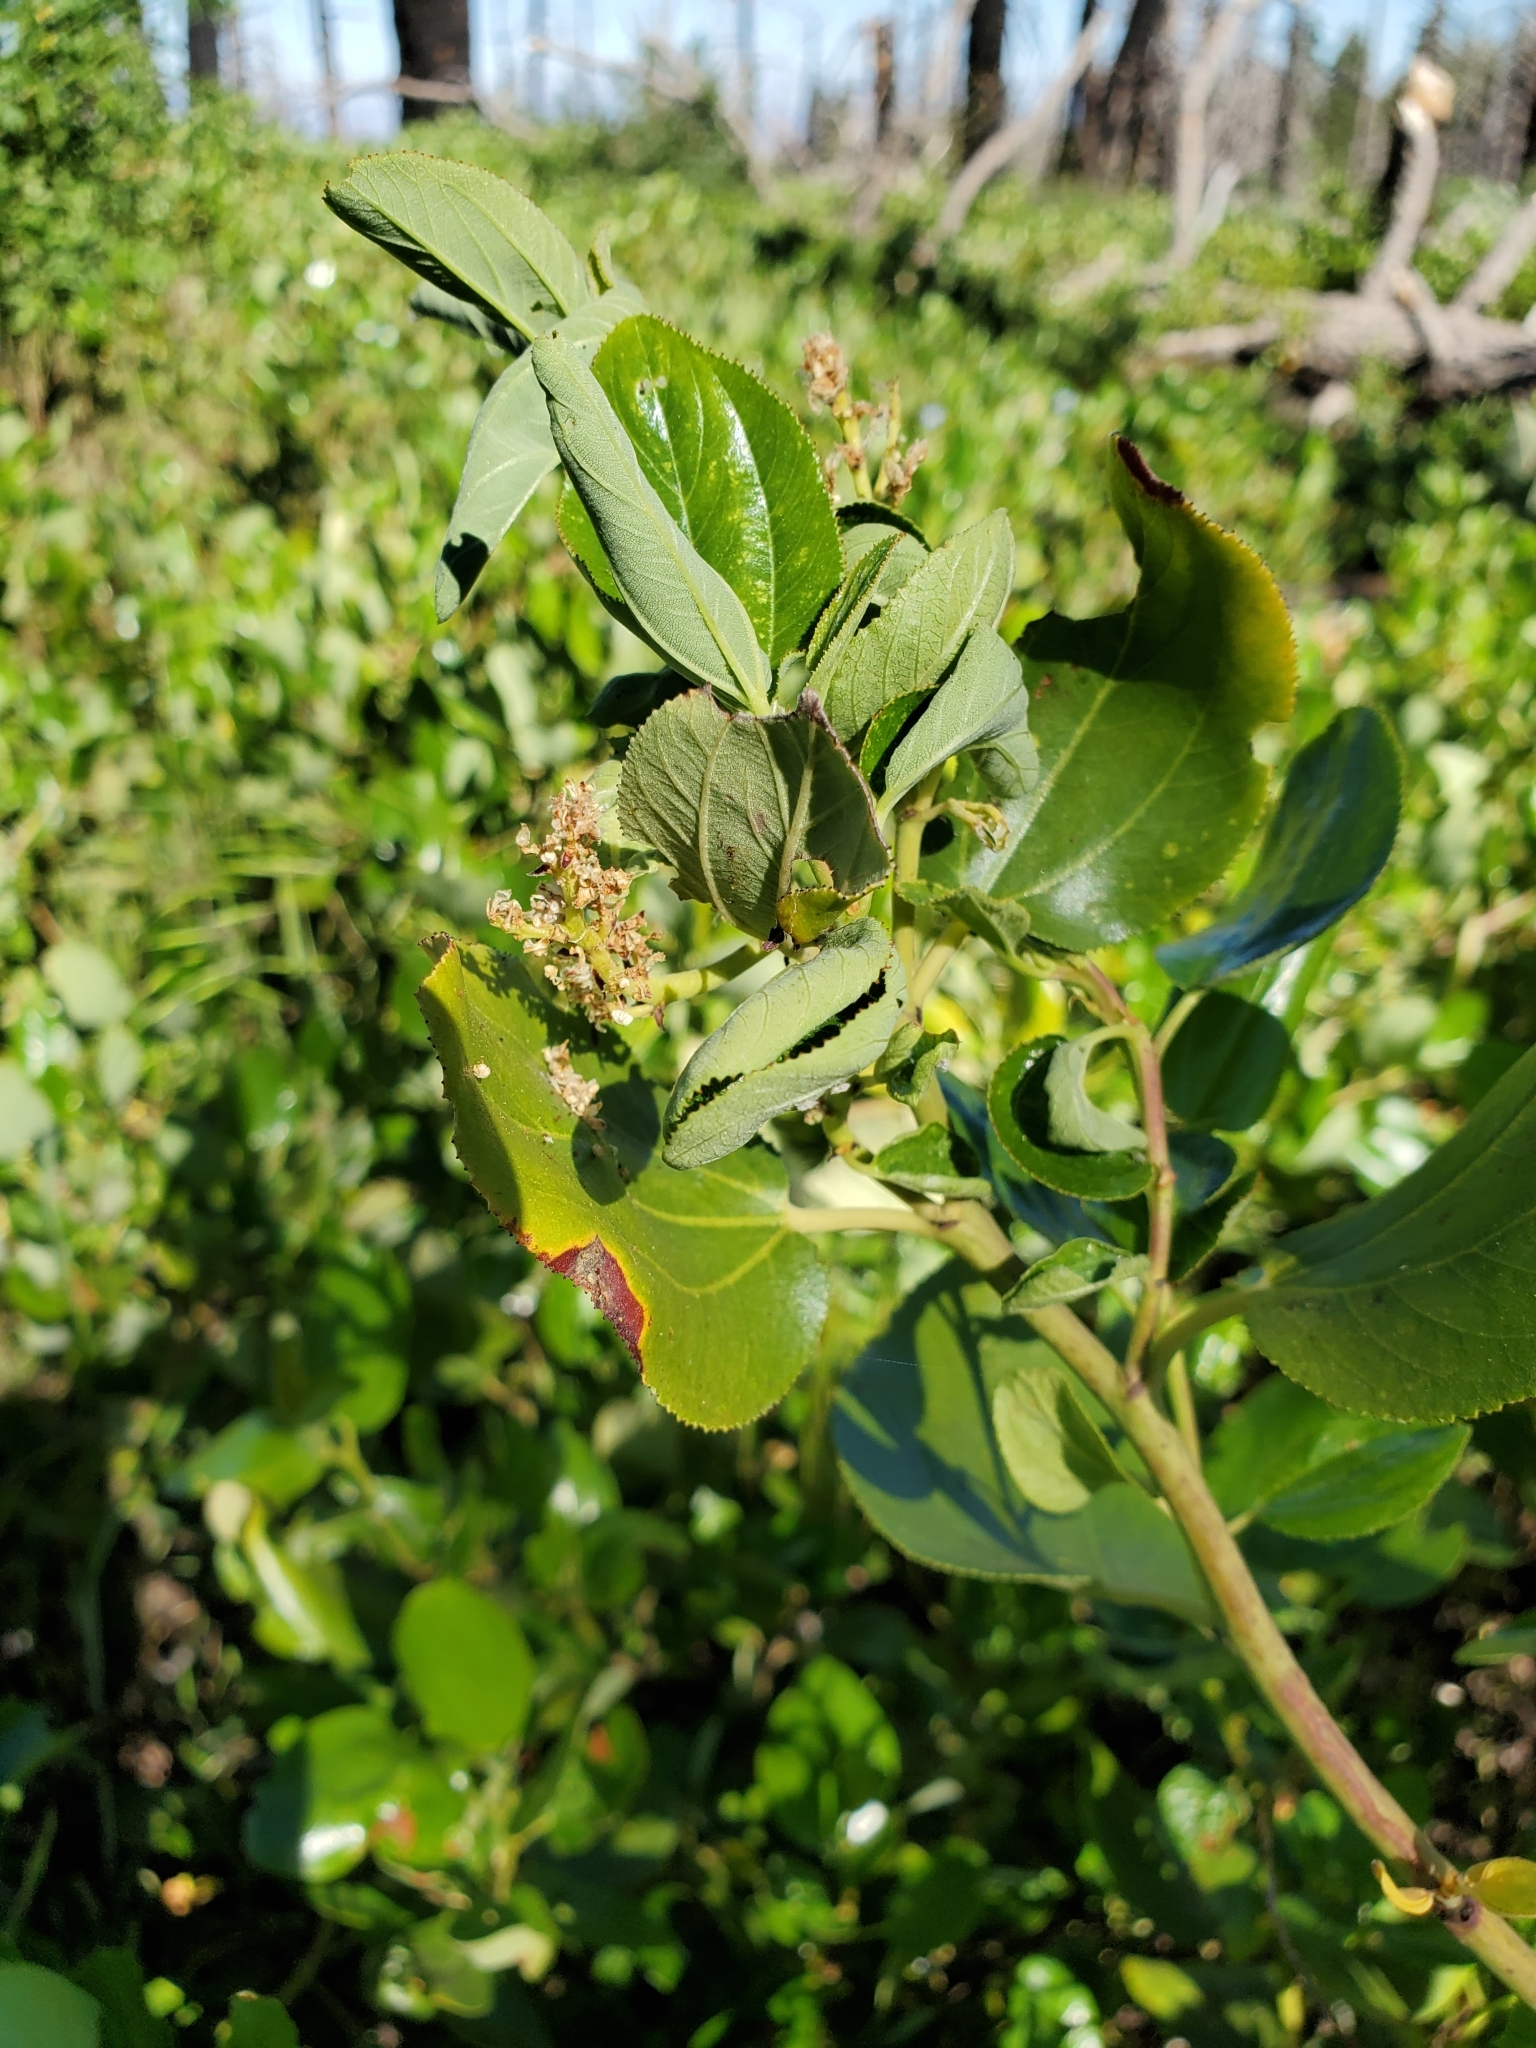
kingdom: Plantae
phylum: Tracheophyta
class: Magnoliopsida
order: Rosales
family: Rhamnaceae
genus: Ceanothus
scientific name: Ceanothus velutinus
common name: Snowbrush
